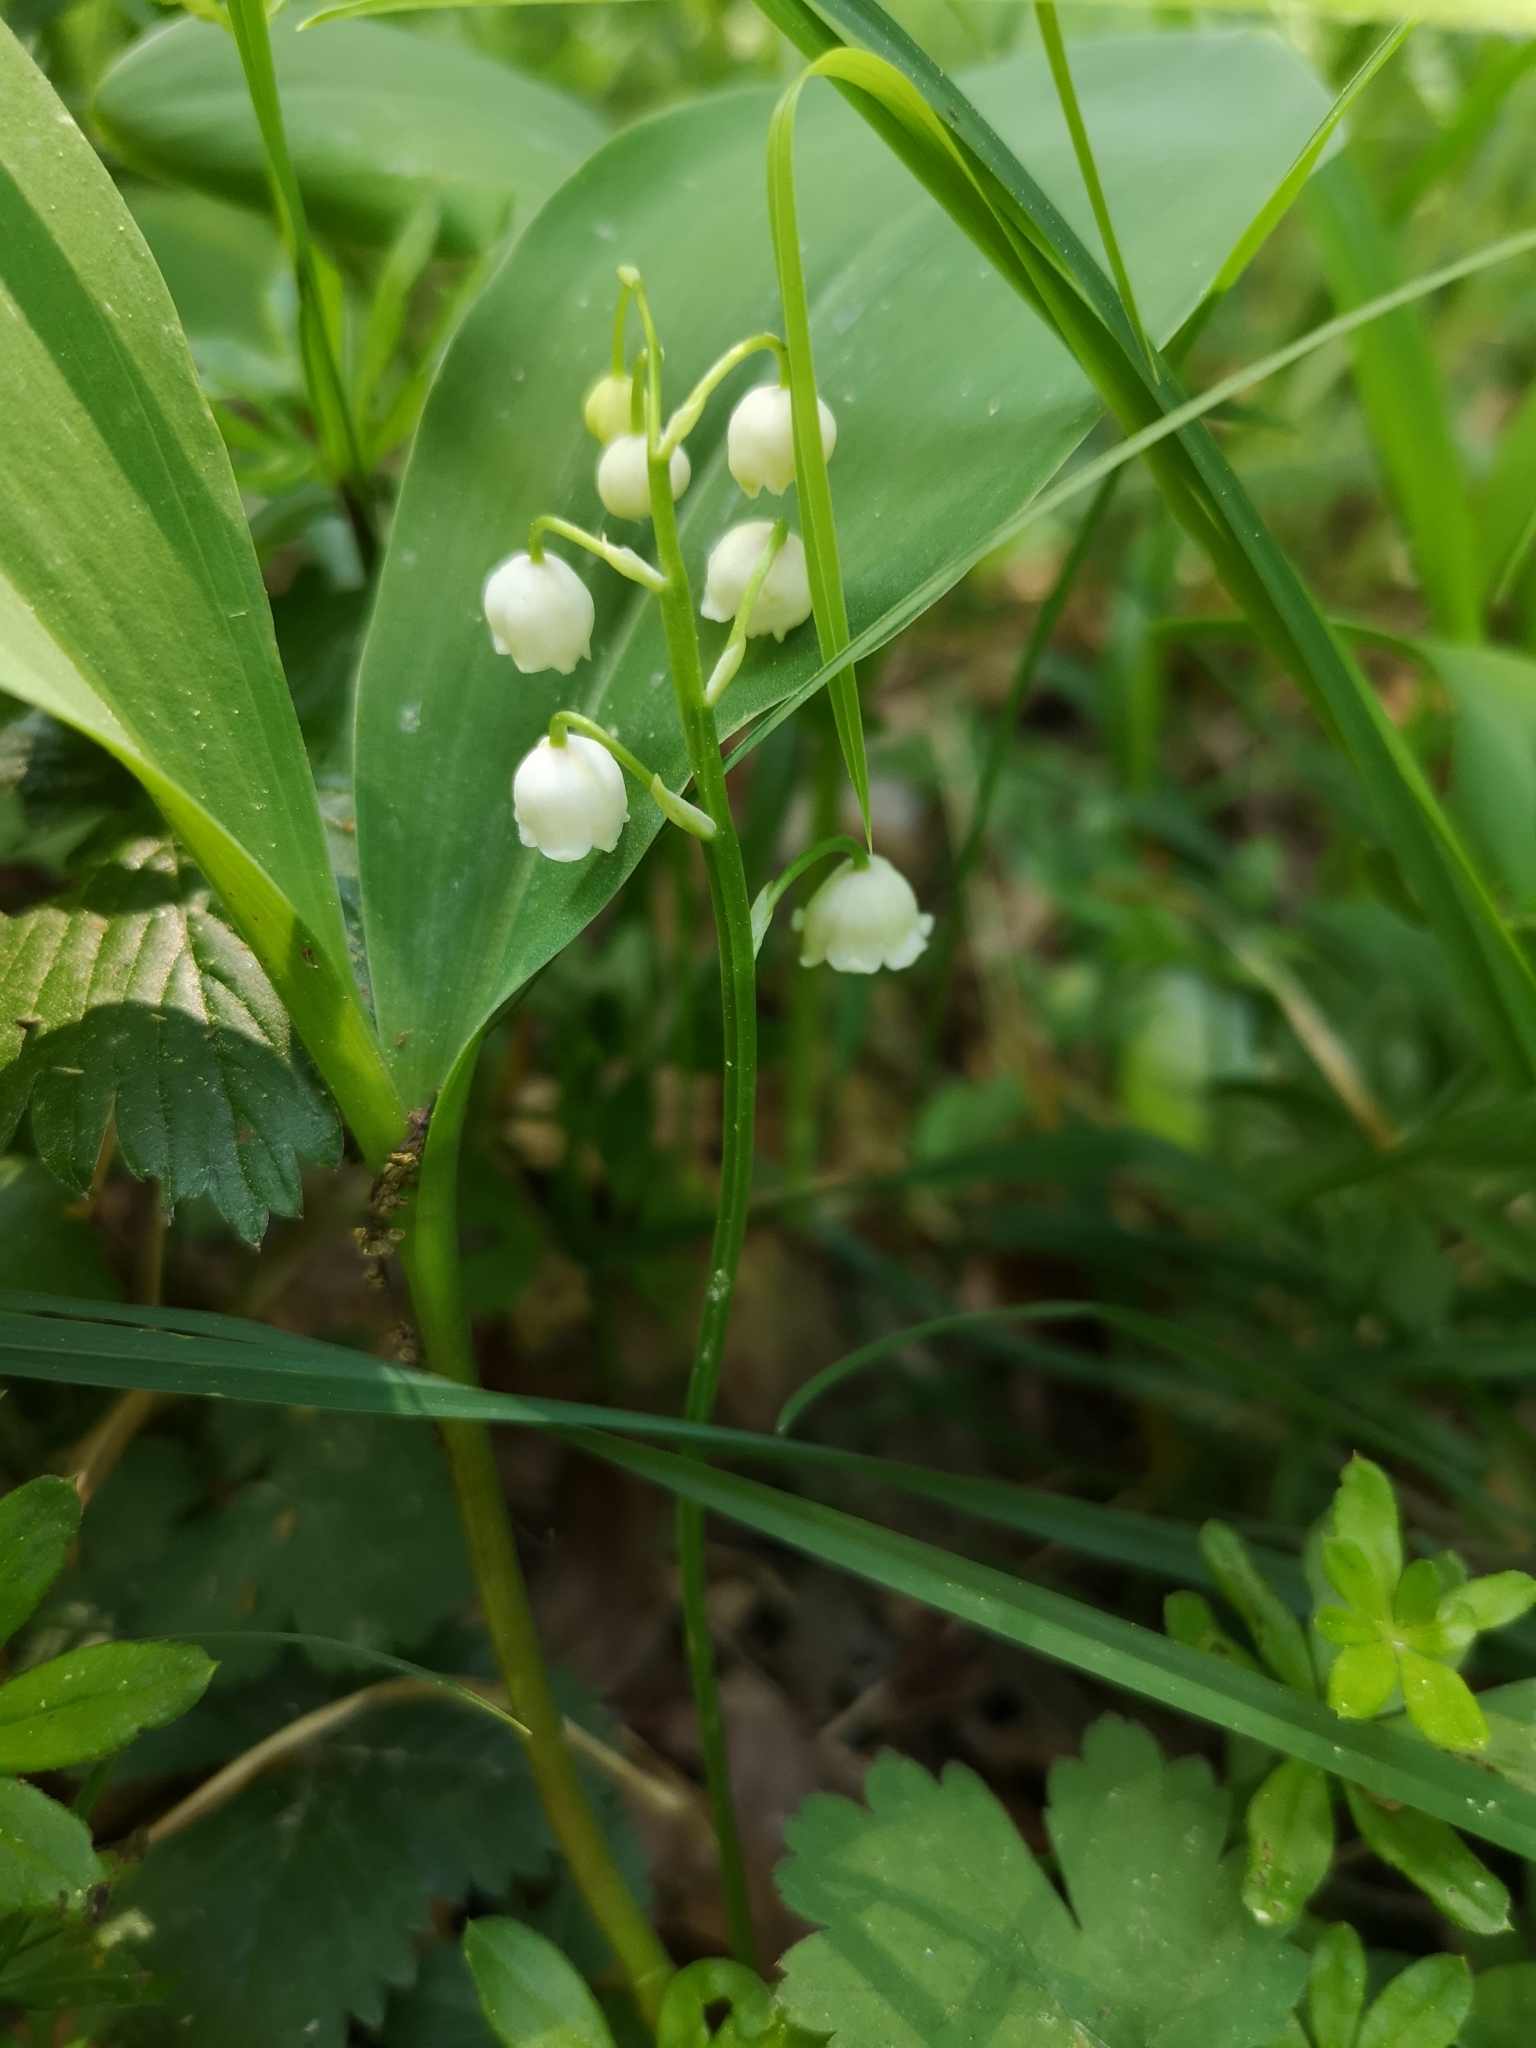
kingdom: Plantae
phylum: Tracheophyta
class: Liliopsida
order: Asparagales
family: Asparagaceae
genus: Convallaria
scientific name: Convallaria majalis
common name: Lily-of-the-valley
